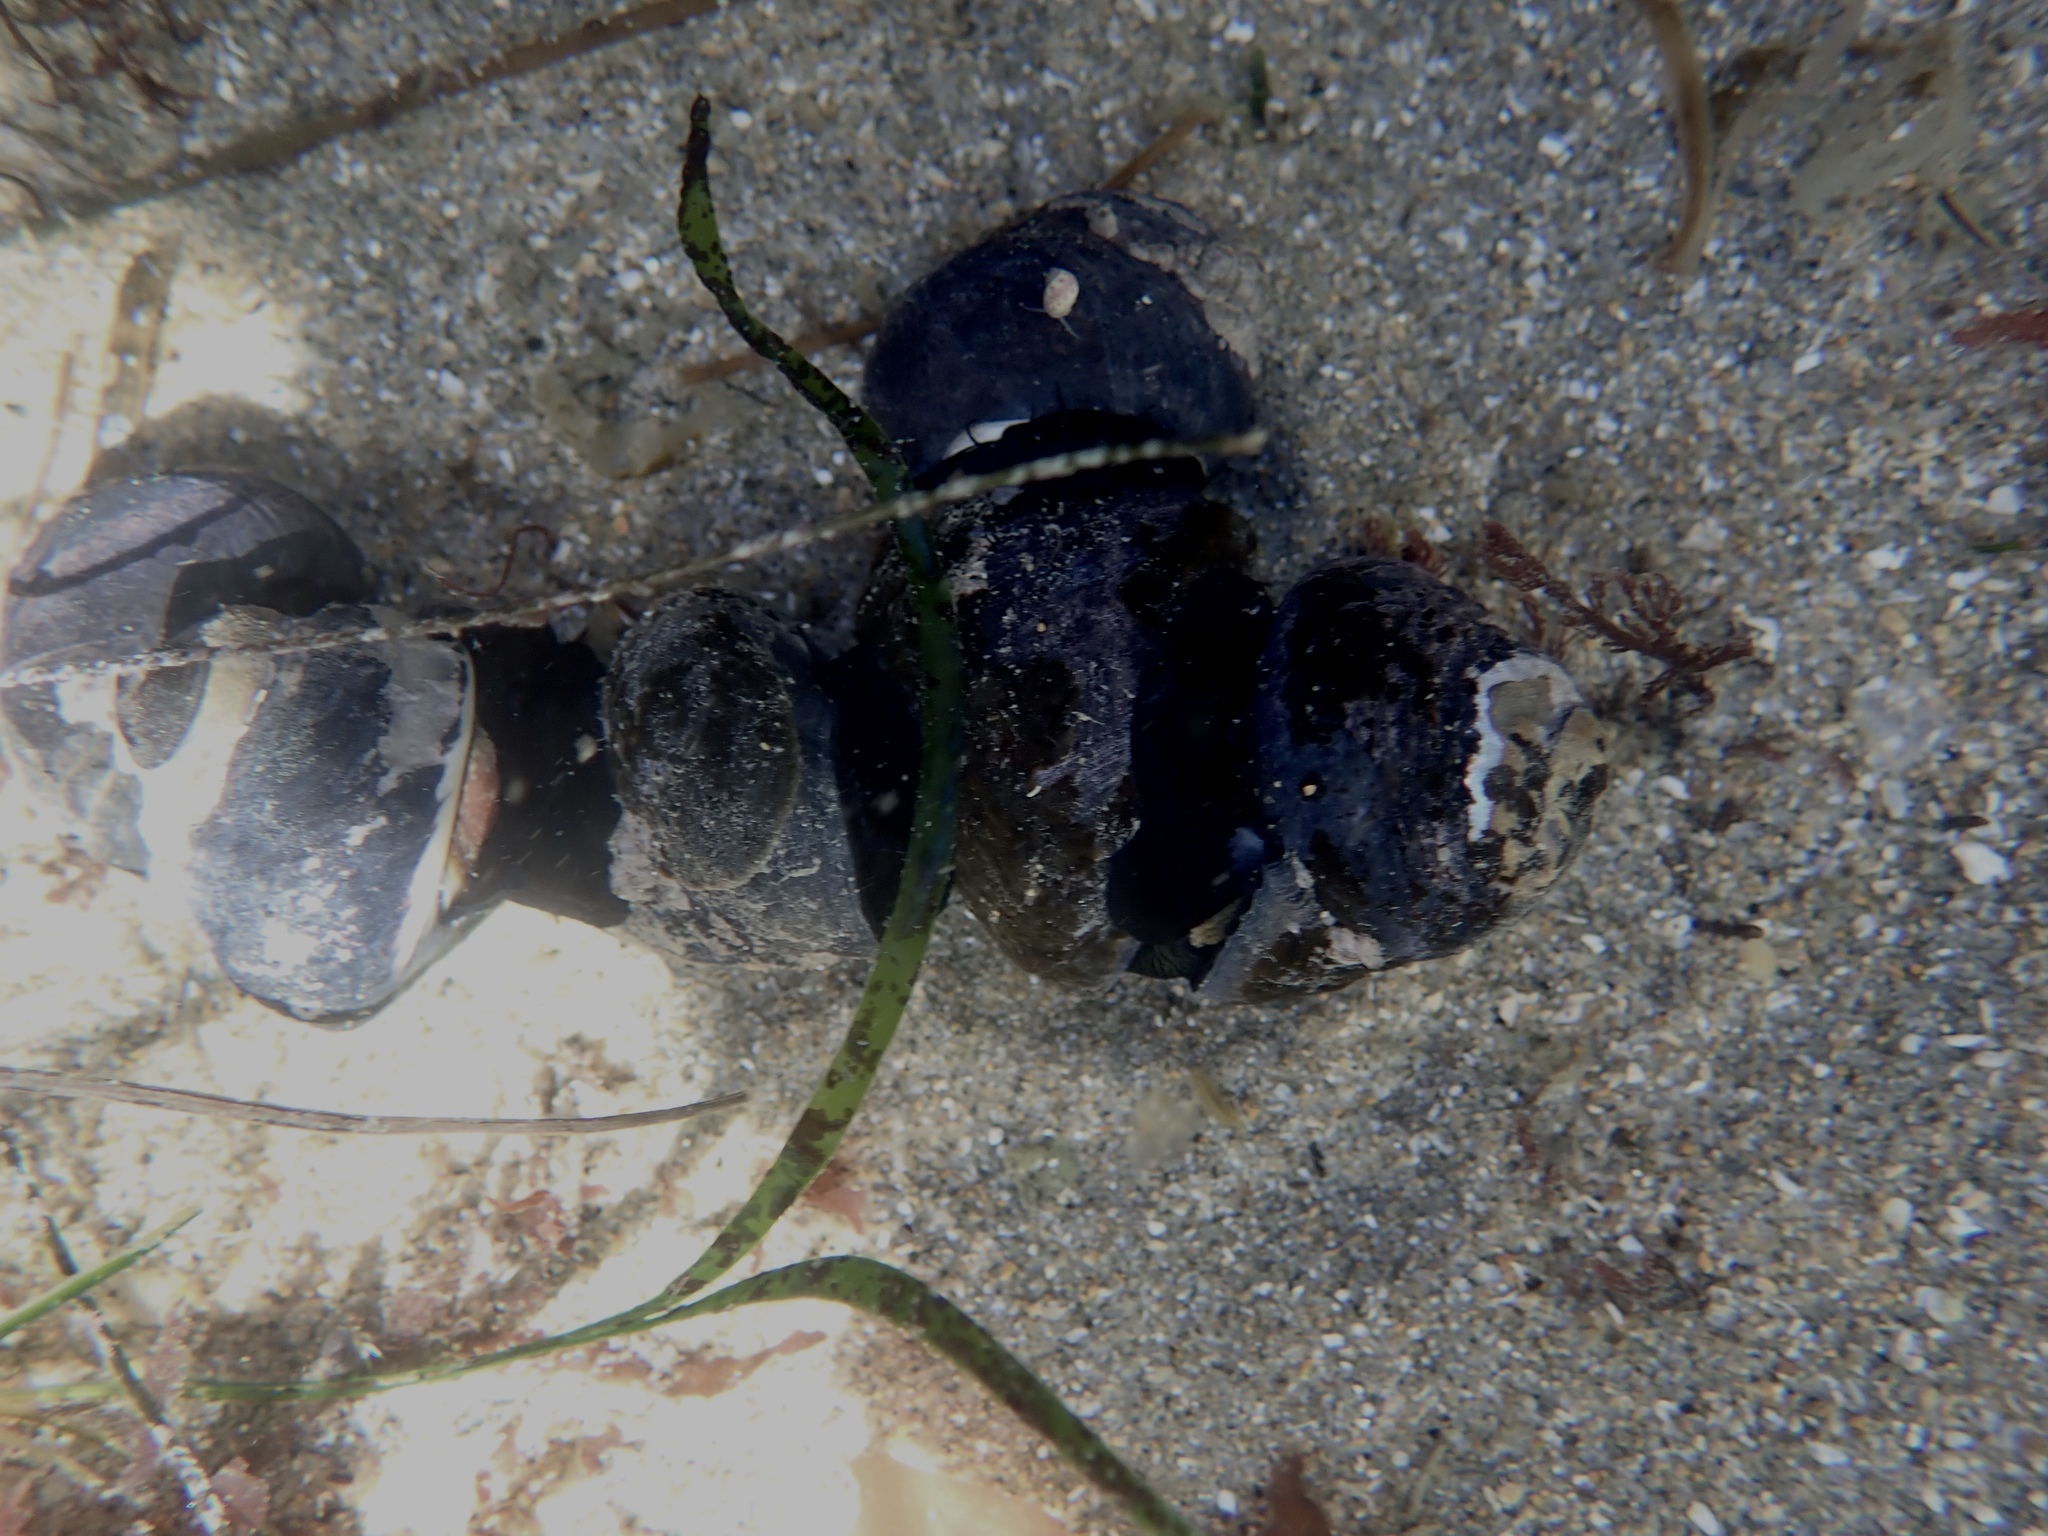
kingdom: Animalia
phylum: Mollusca
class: Gastropoda
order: Trochida
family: Tegulidae
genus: Tegula
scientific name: Tegula funebralis
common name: Black tegula
